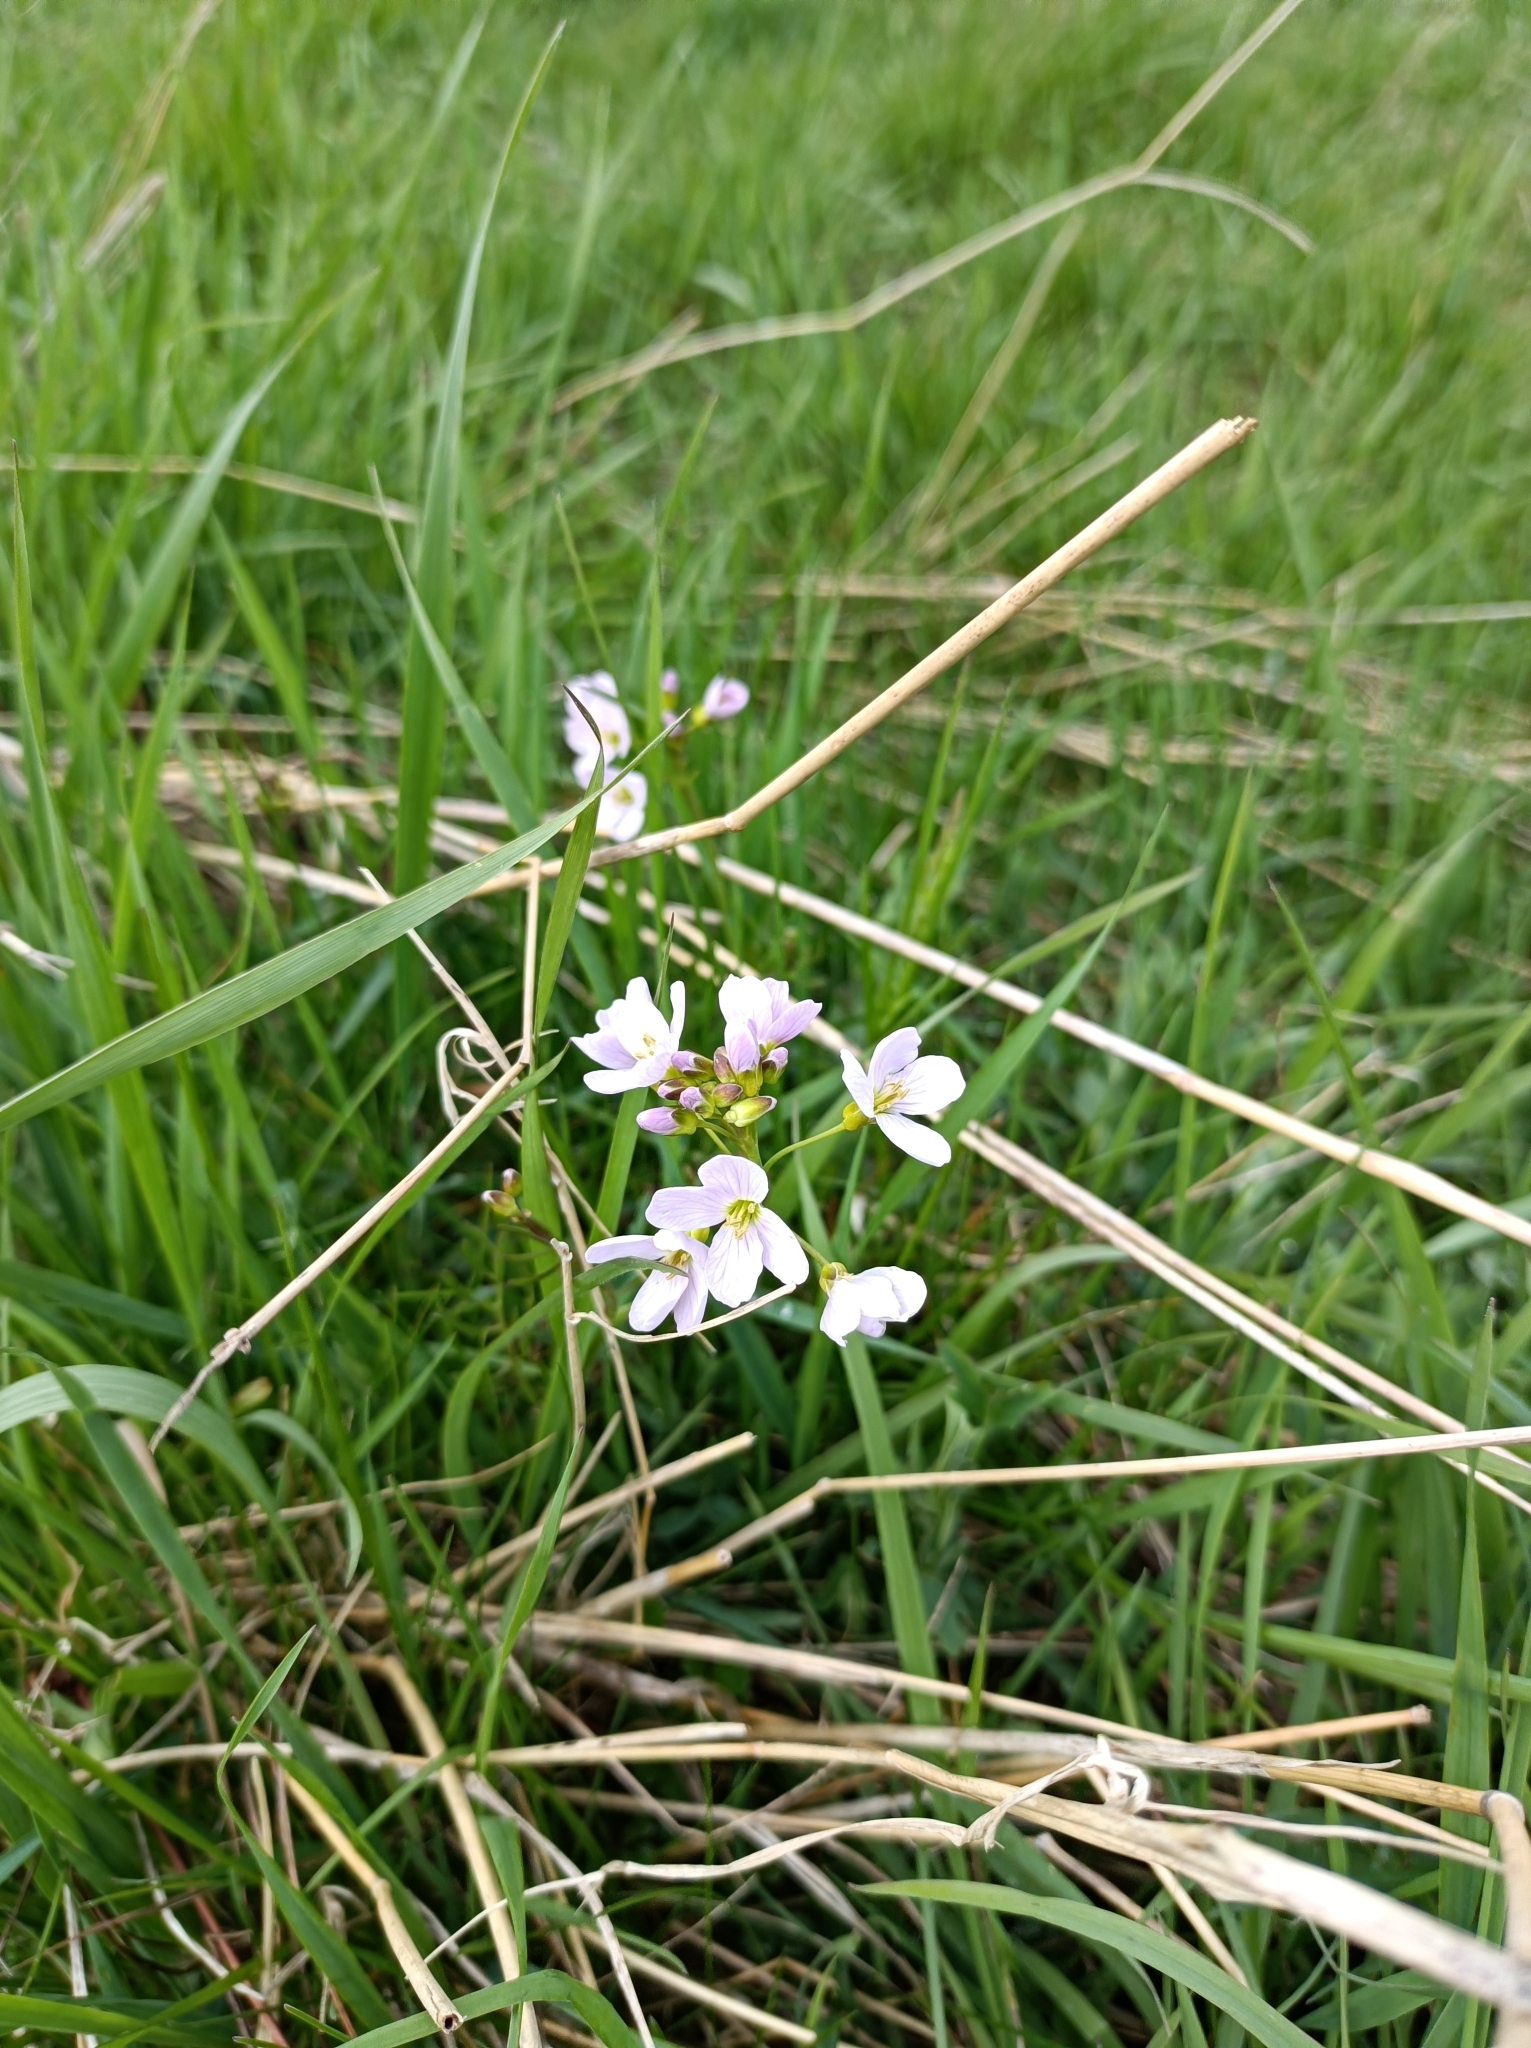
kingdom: Plantae
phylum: Tracheophyta
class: Magnoliopsida
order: Brassicales
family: Brassicaceae
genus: Cardamine
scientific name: Cardamine pratensis
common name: Cuckoo flower
